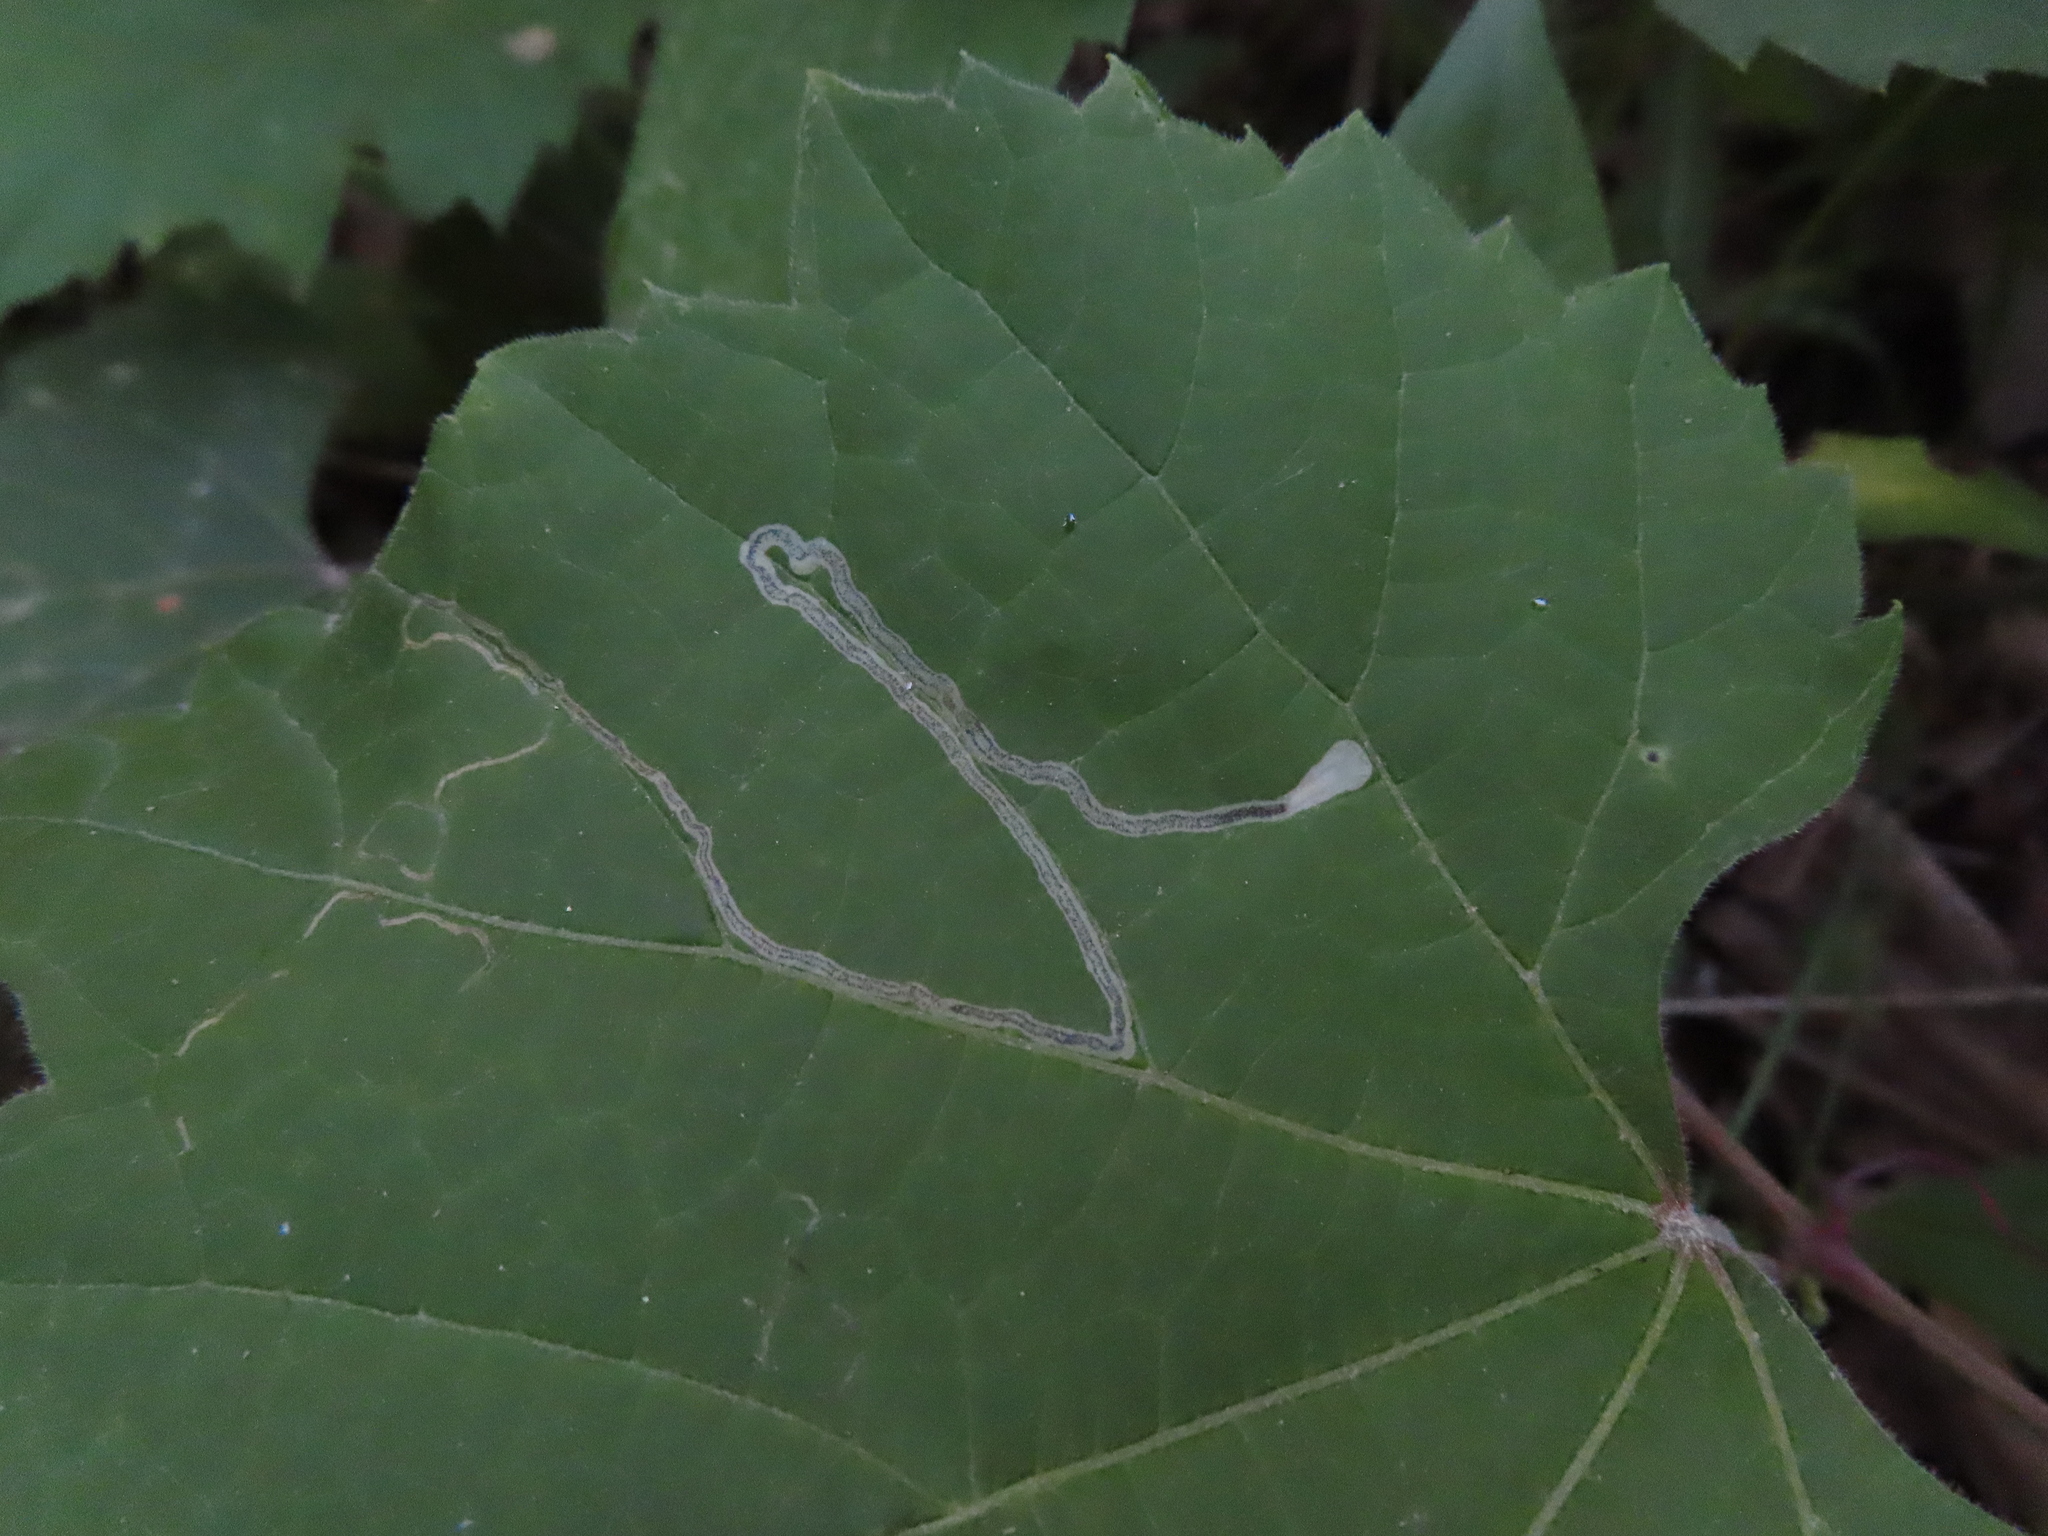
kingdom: Animalia
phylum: Arthropoda
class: Insecta
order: Lepidoptera
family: Gracillariidae
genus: Phyllocnistis
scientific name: Phyllocnistis vitifoliella
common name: Grape leaf-miner moth
